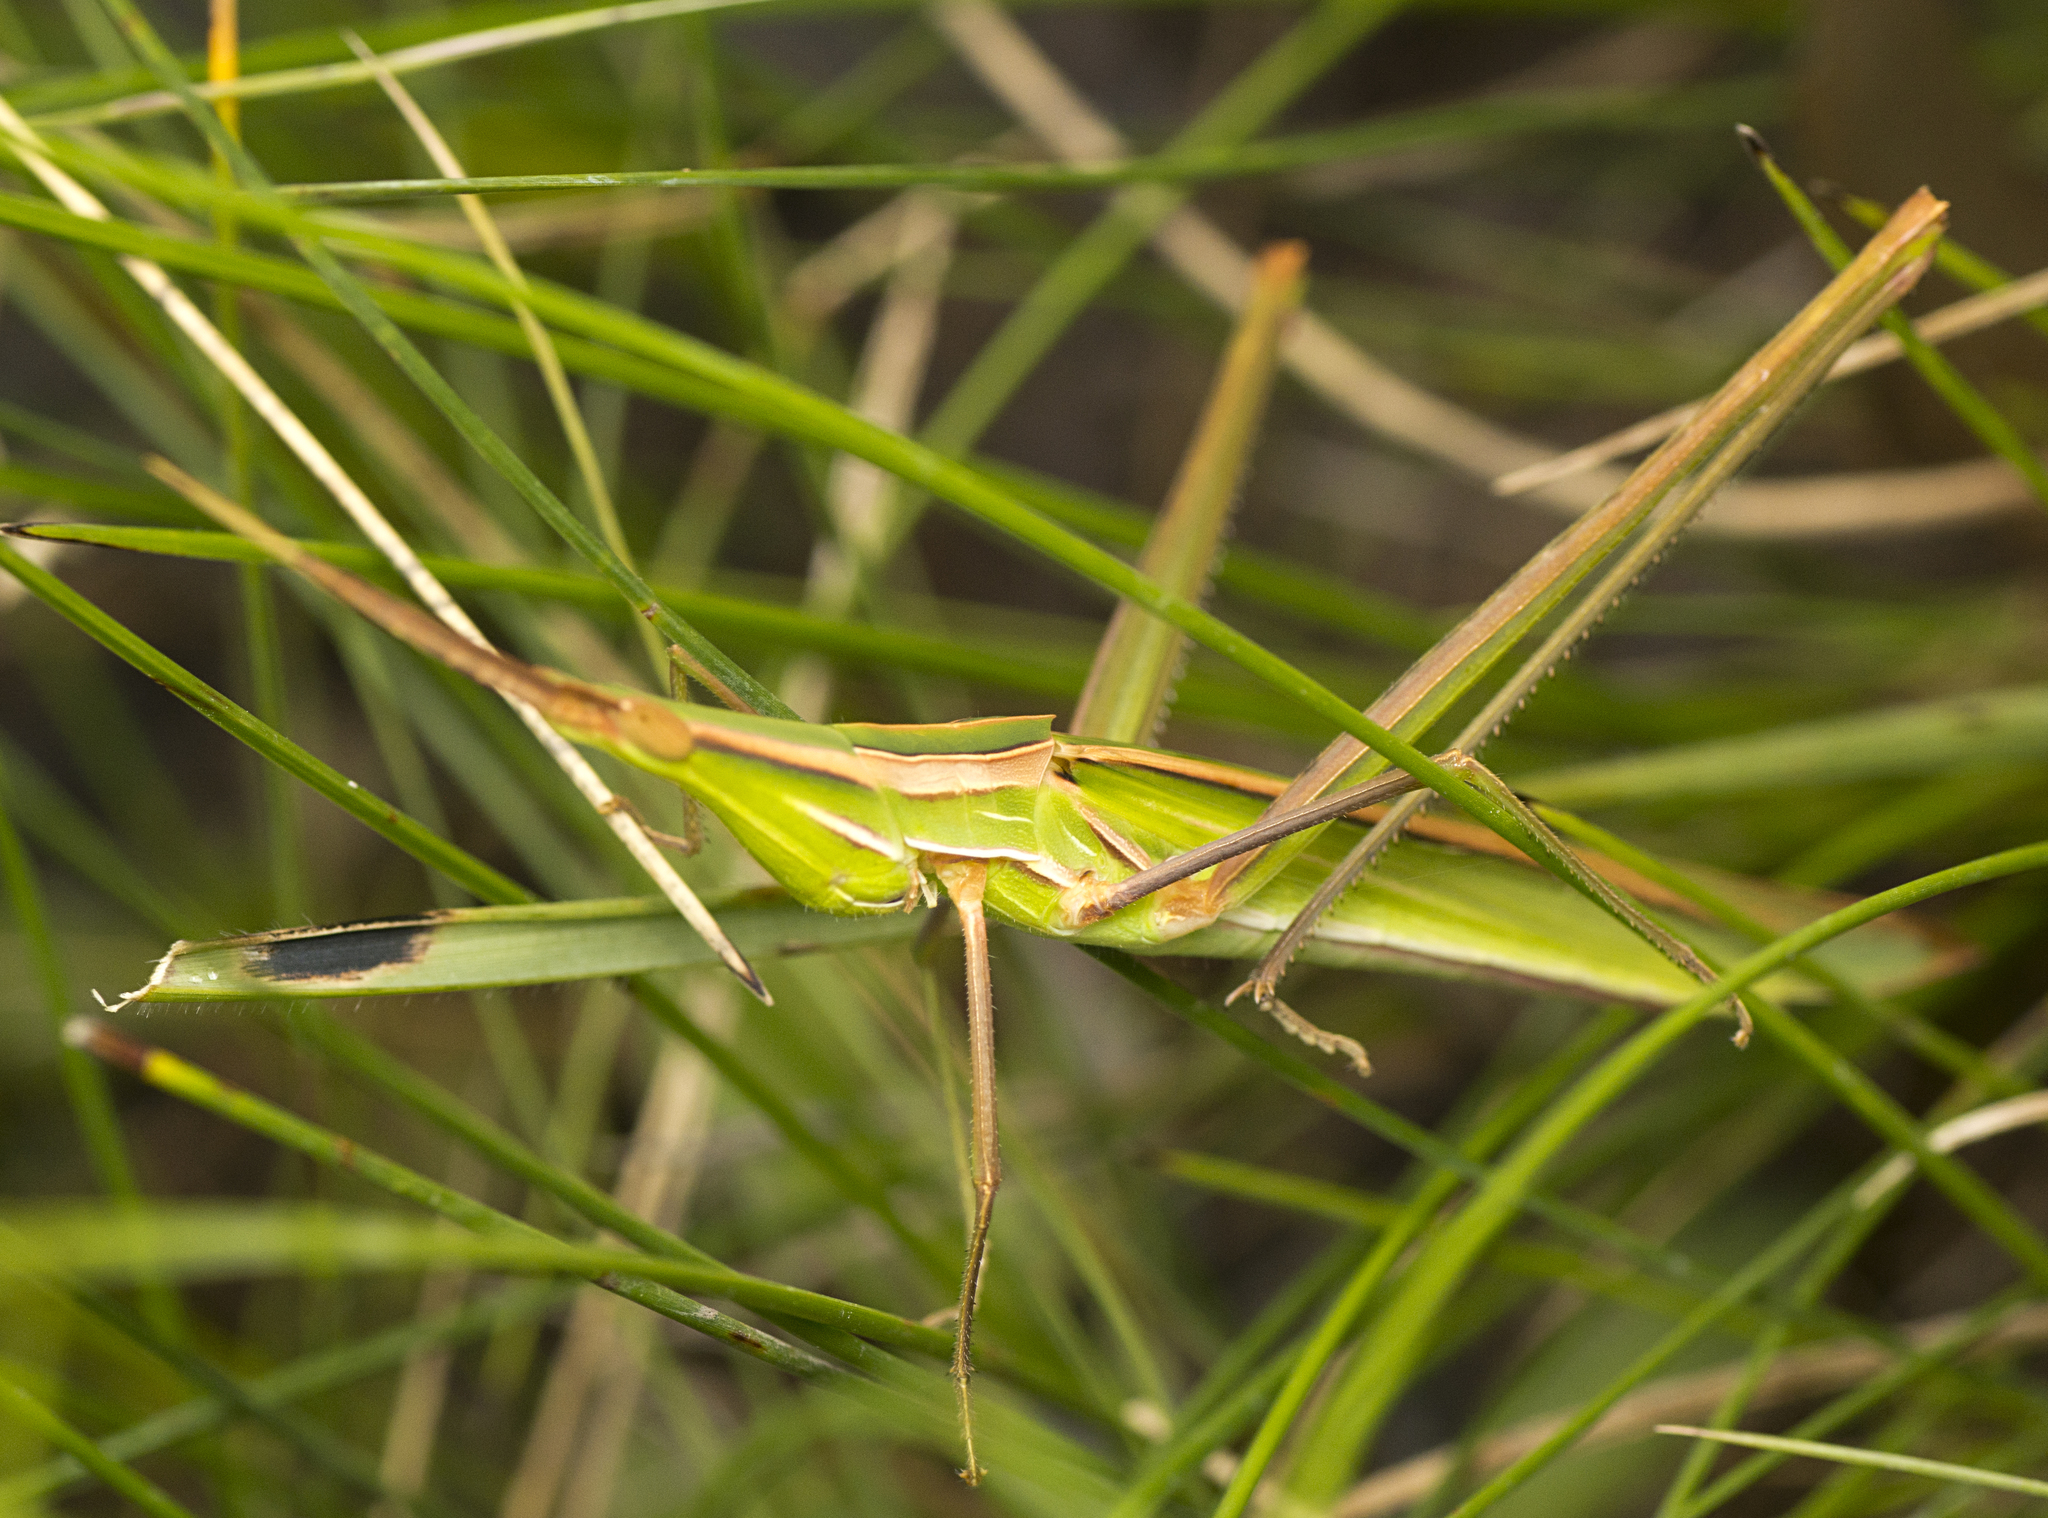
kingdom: Animalia
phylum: Arthropoda
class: Insecta
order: Orthoptera
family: Acrididae
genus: Acrida
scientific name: Acrida conica
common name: Giant green slantface
